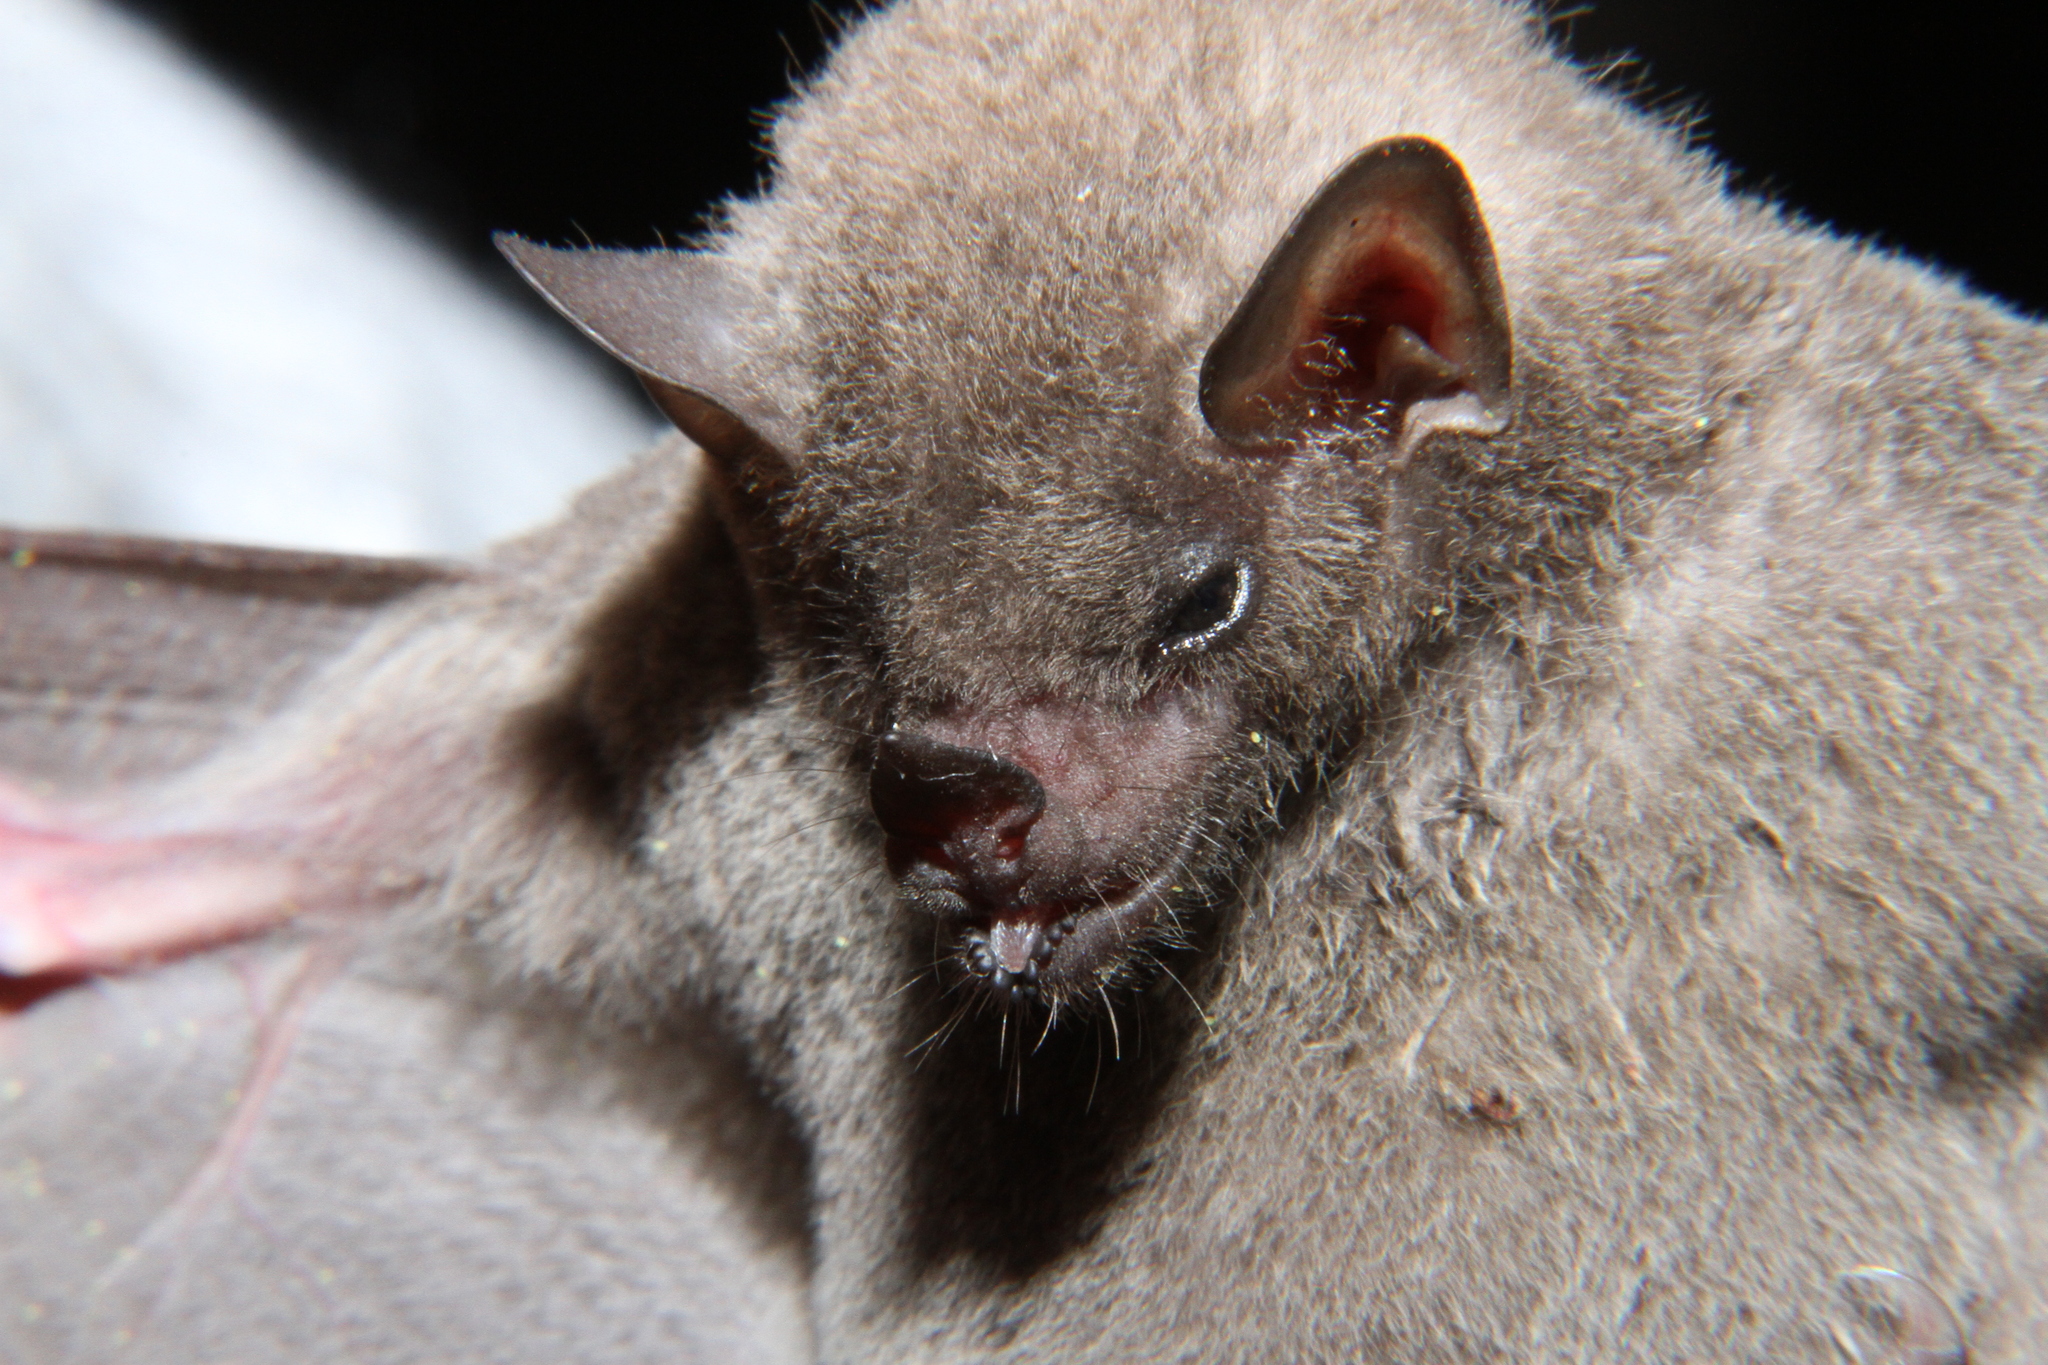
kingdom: Animalia
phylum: Chordata
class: Mammalia
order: Chiroptera
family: Phyllostomidae
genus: Glossophaga
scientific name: Glossophaga leachii
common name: Gray's long-tongued bat
